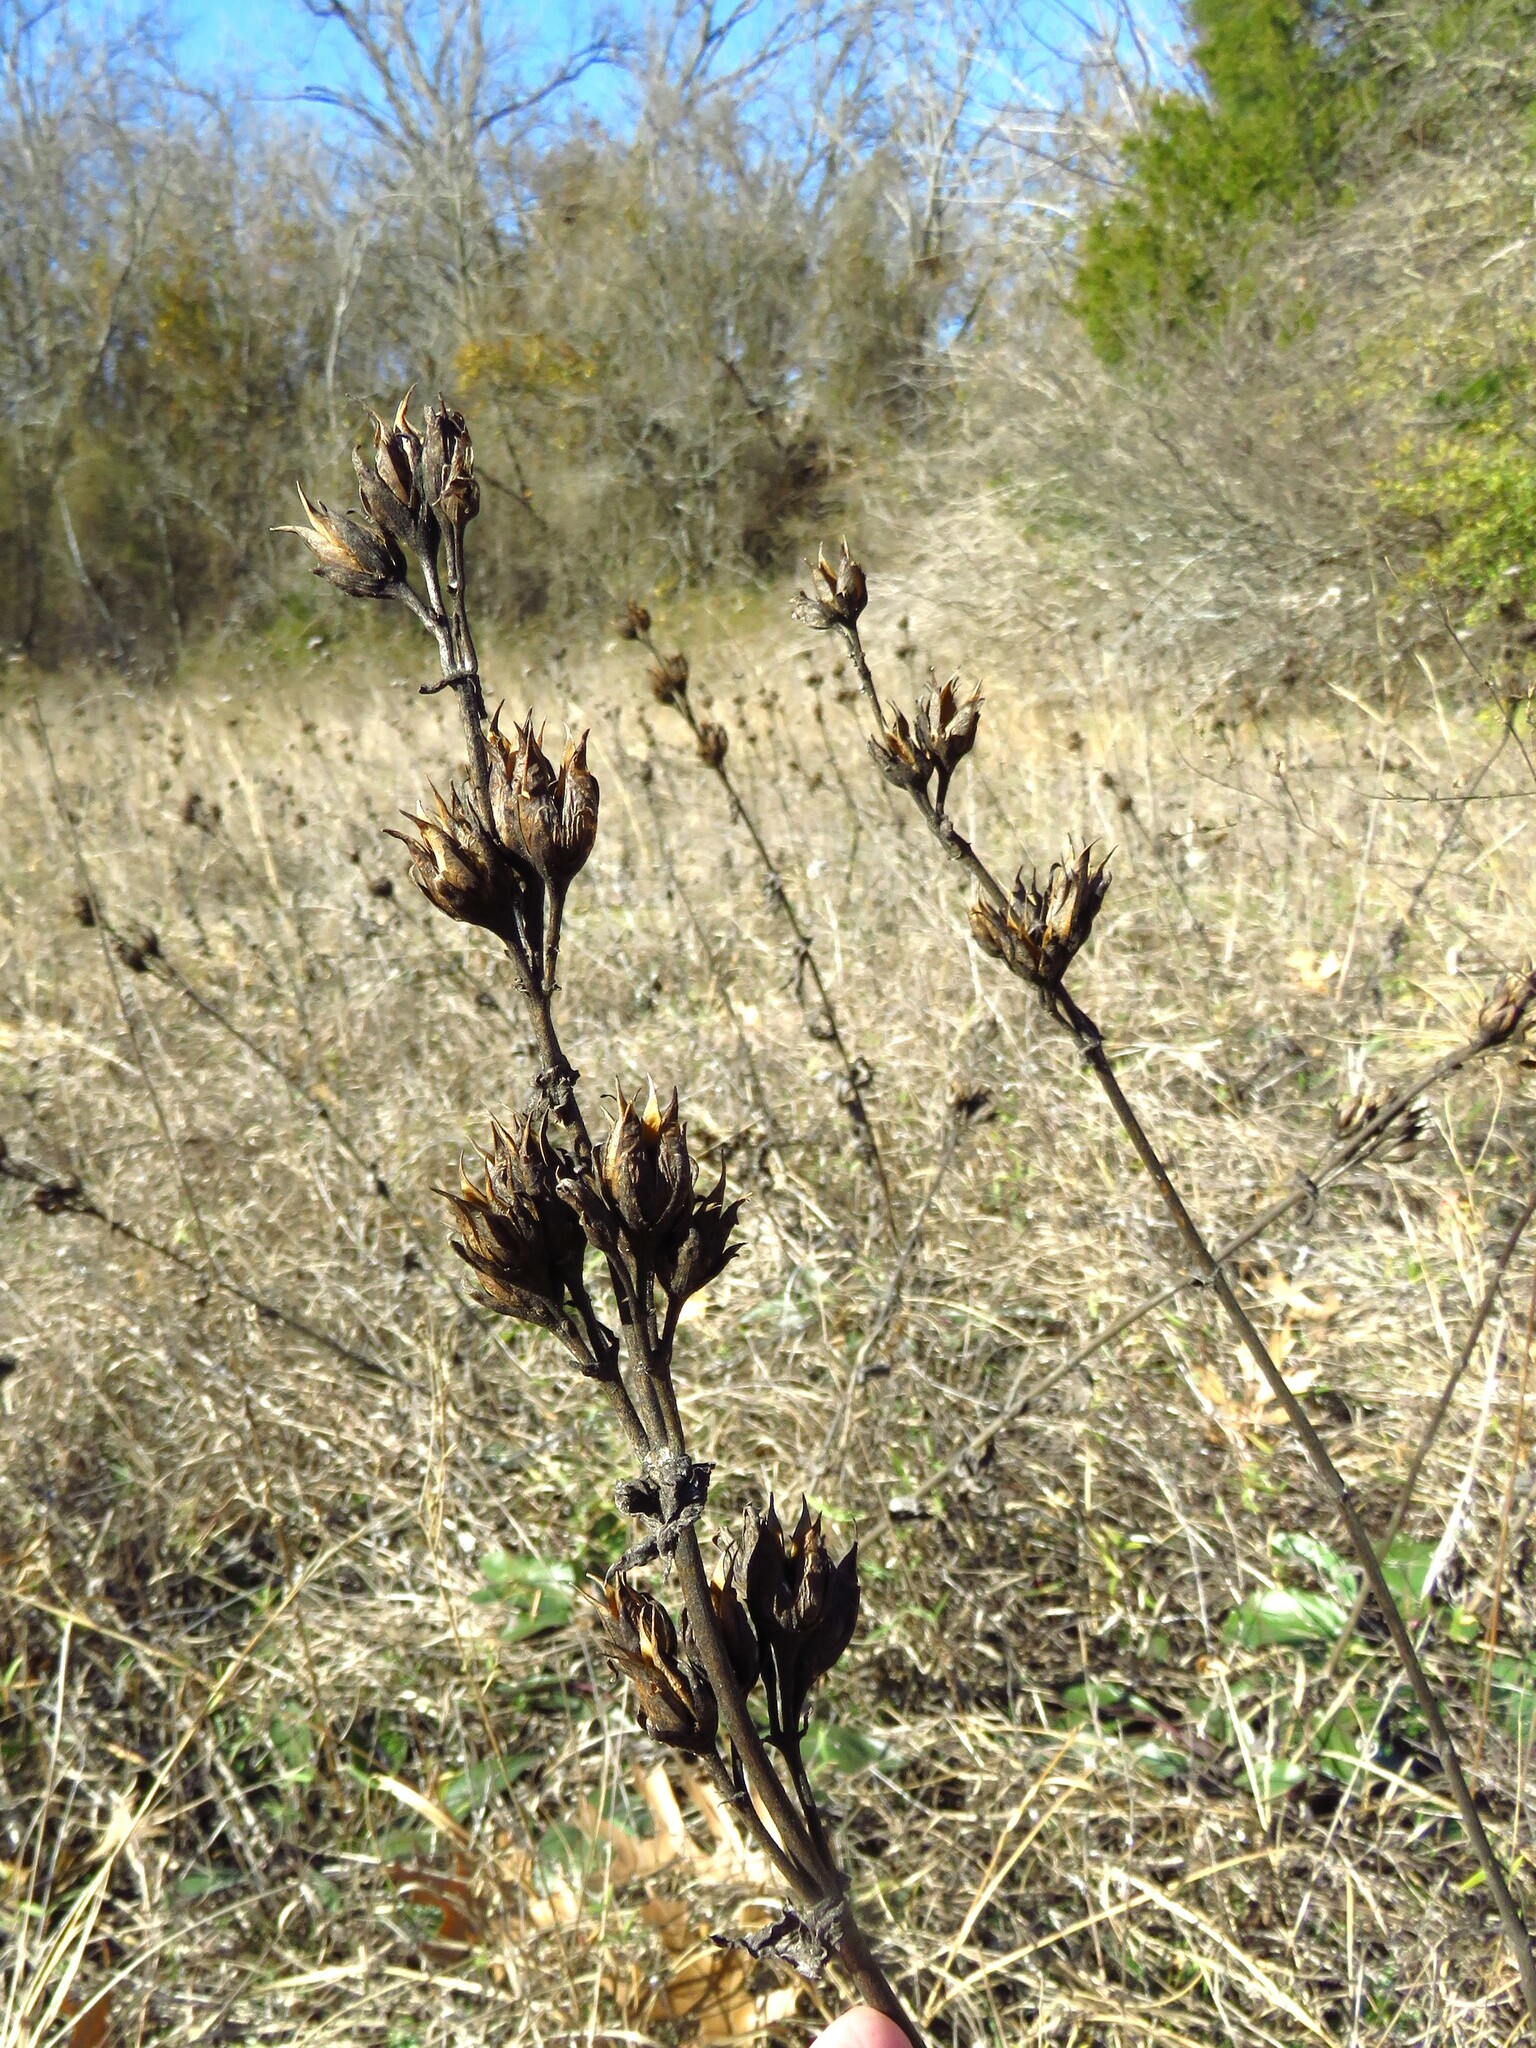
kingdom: Plantae
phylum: Tracheophyta
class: Magnoliopsida
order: Lamiales
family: Plantaginaceae
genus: Penstemon
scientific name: Penstemon cobaea
